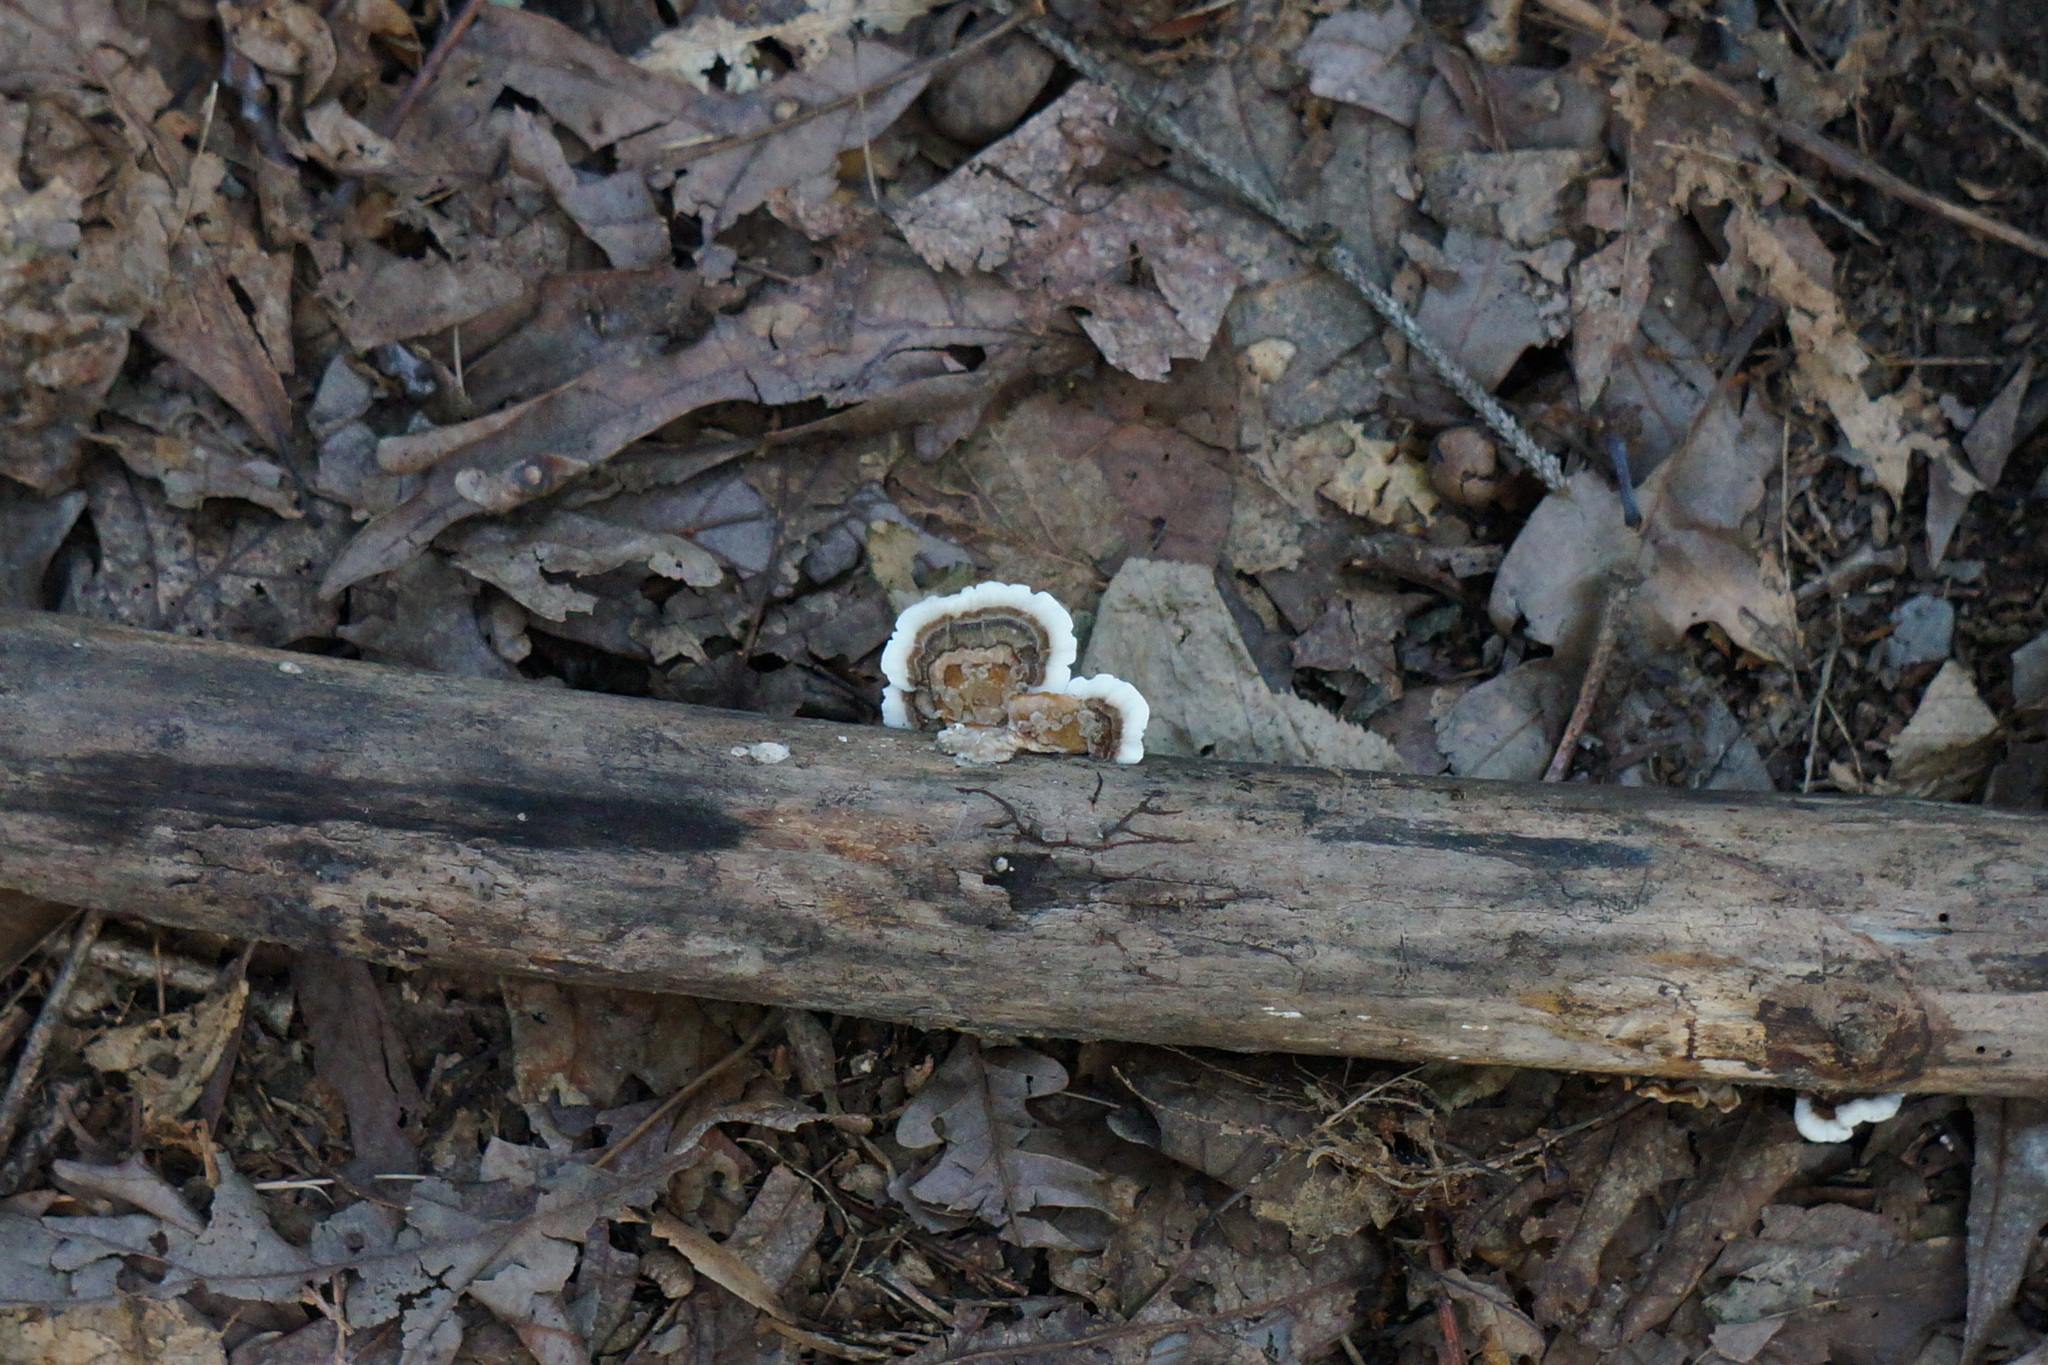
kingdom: Fungi
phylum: Basidiomycota
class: Agaricomycetes
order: Polyporales
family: Polyporaceae
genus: Trametes
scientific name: Trametes versicolor
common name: Turkeytail
